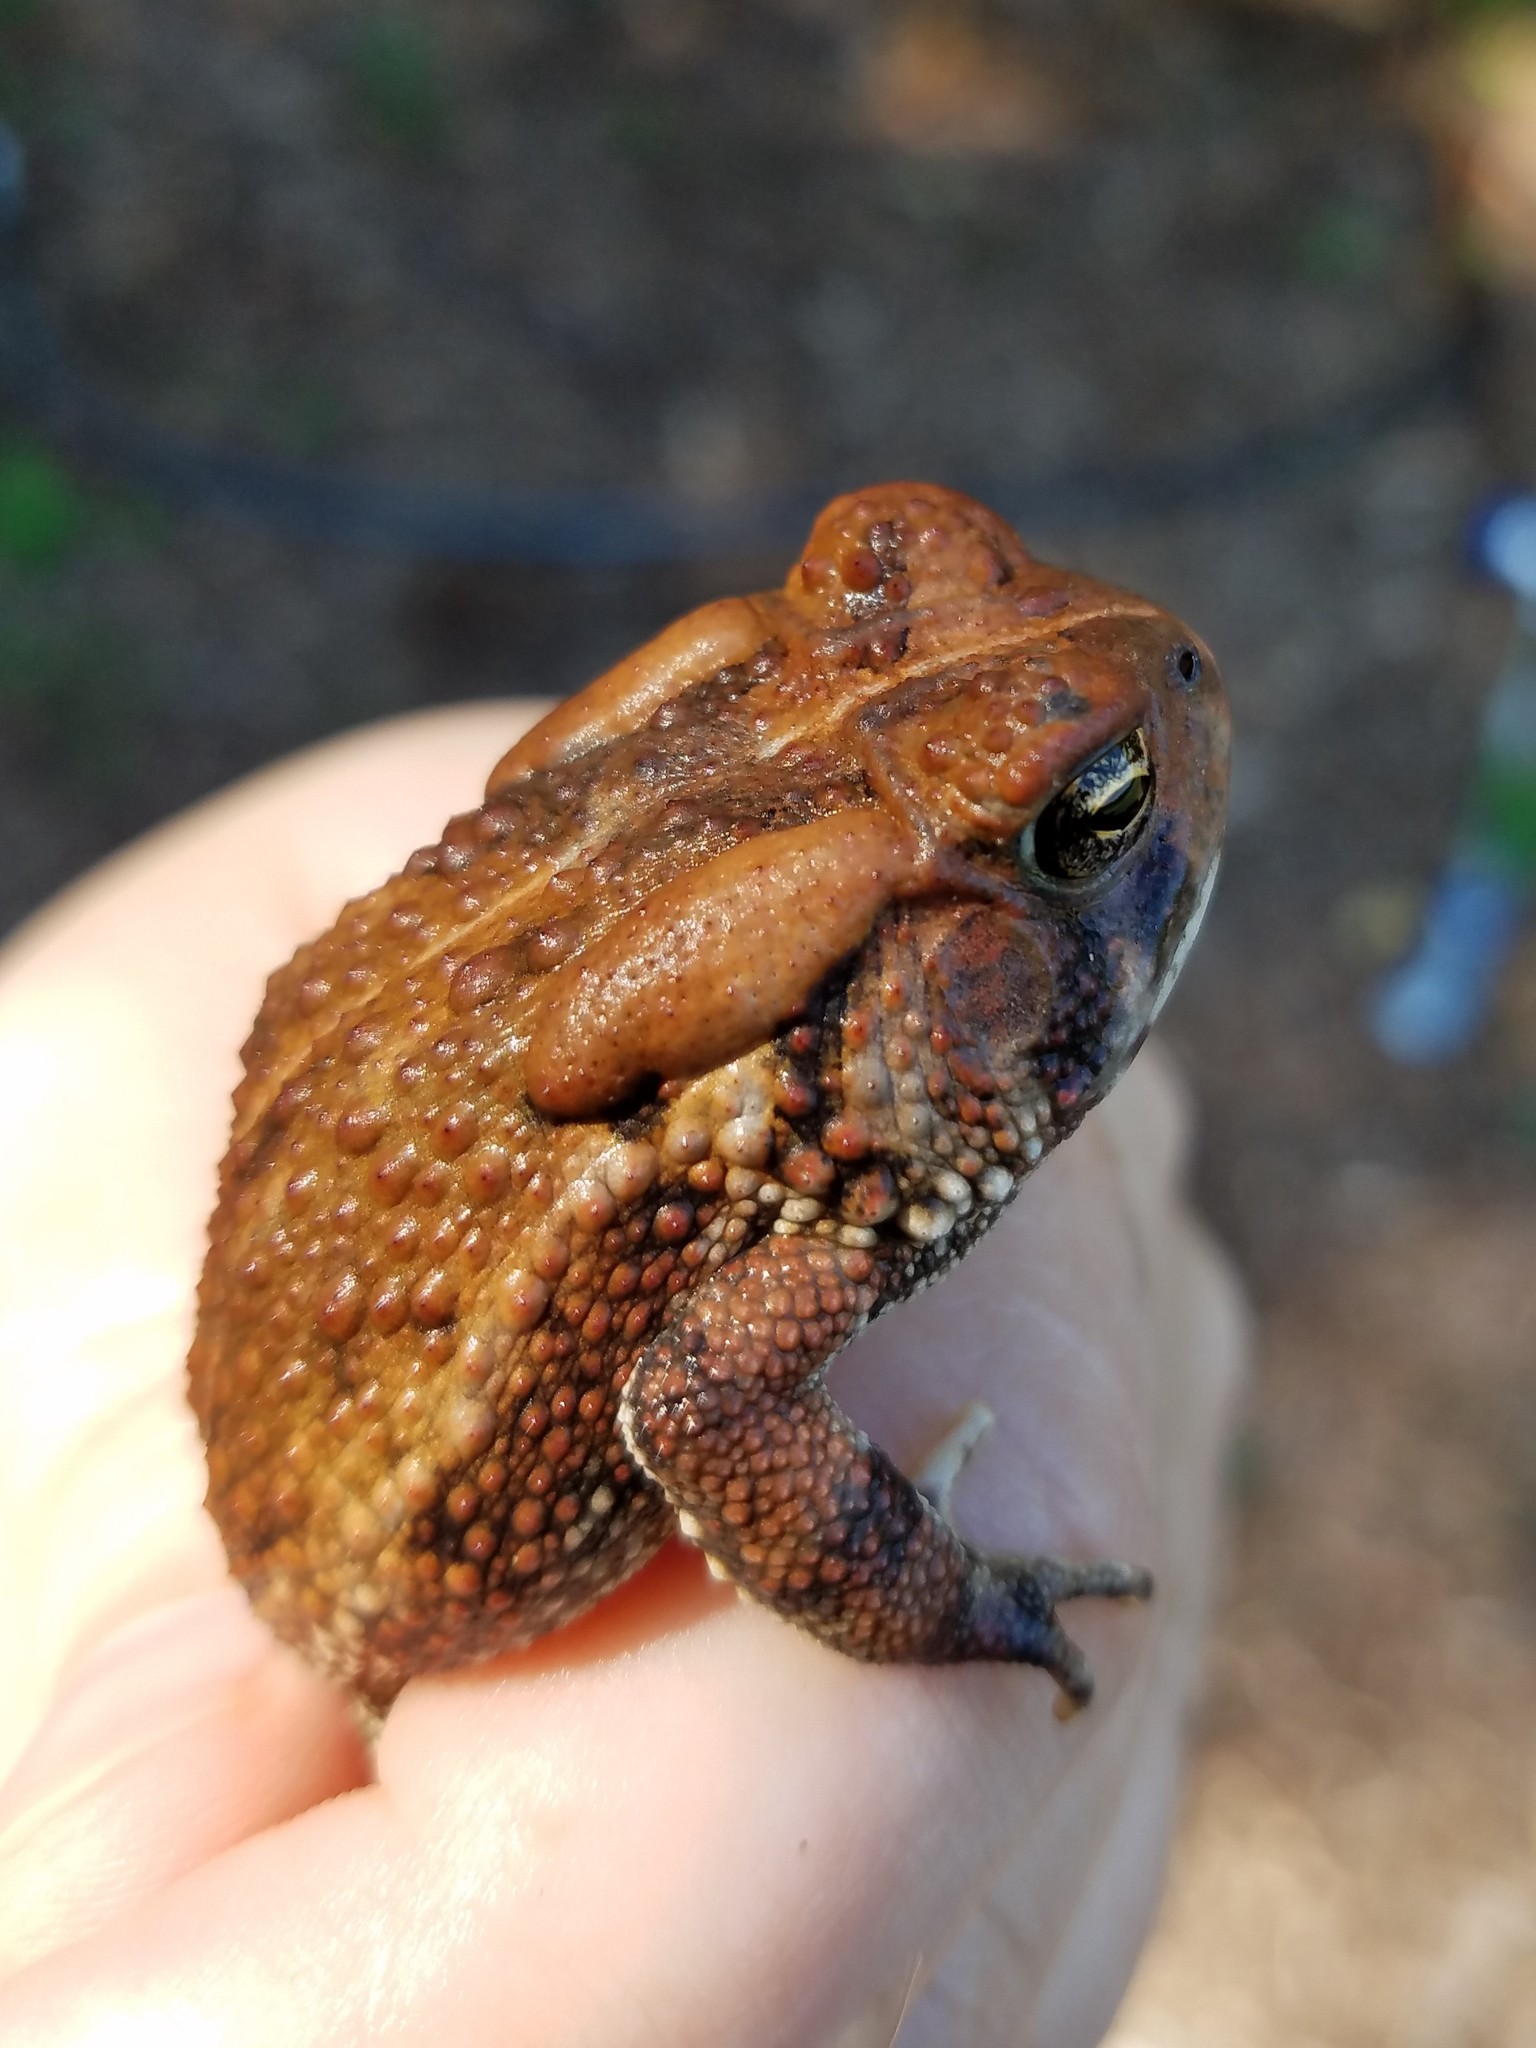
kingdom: Animalia
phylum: Chordata
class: Amphibia
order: Anura
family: Bufonidae
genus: Anaxyrus
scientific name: Anaxyrus fowleri
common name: Fowler's toad
